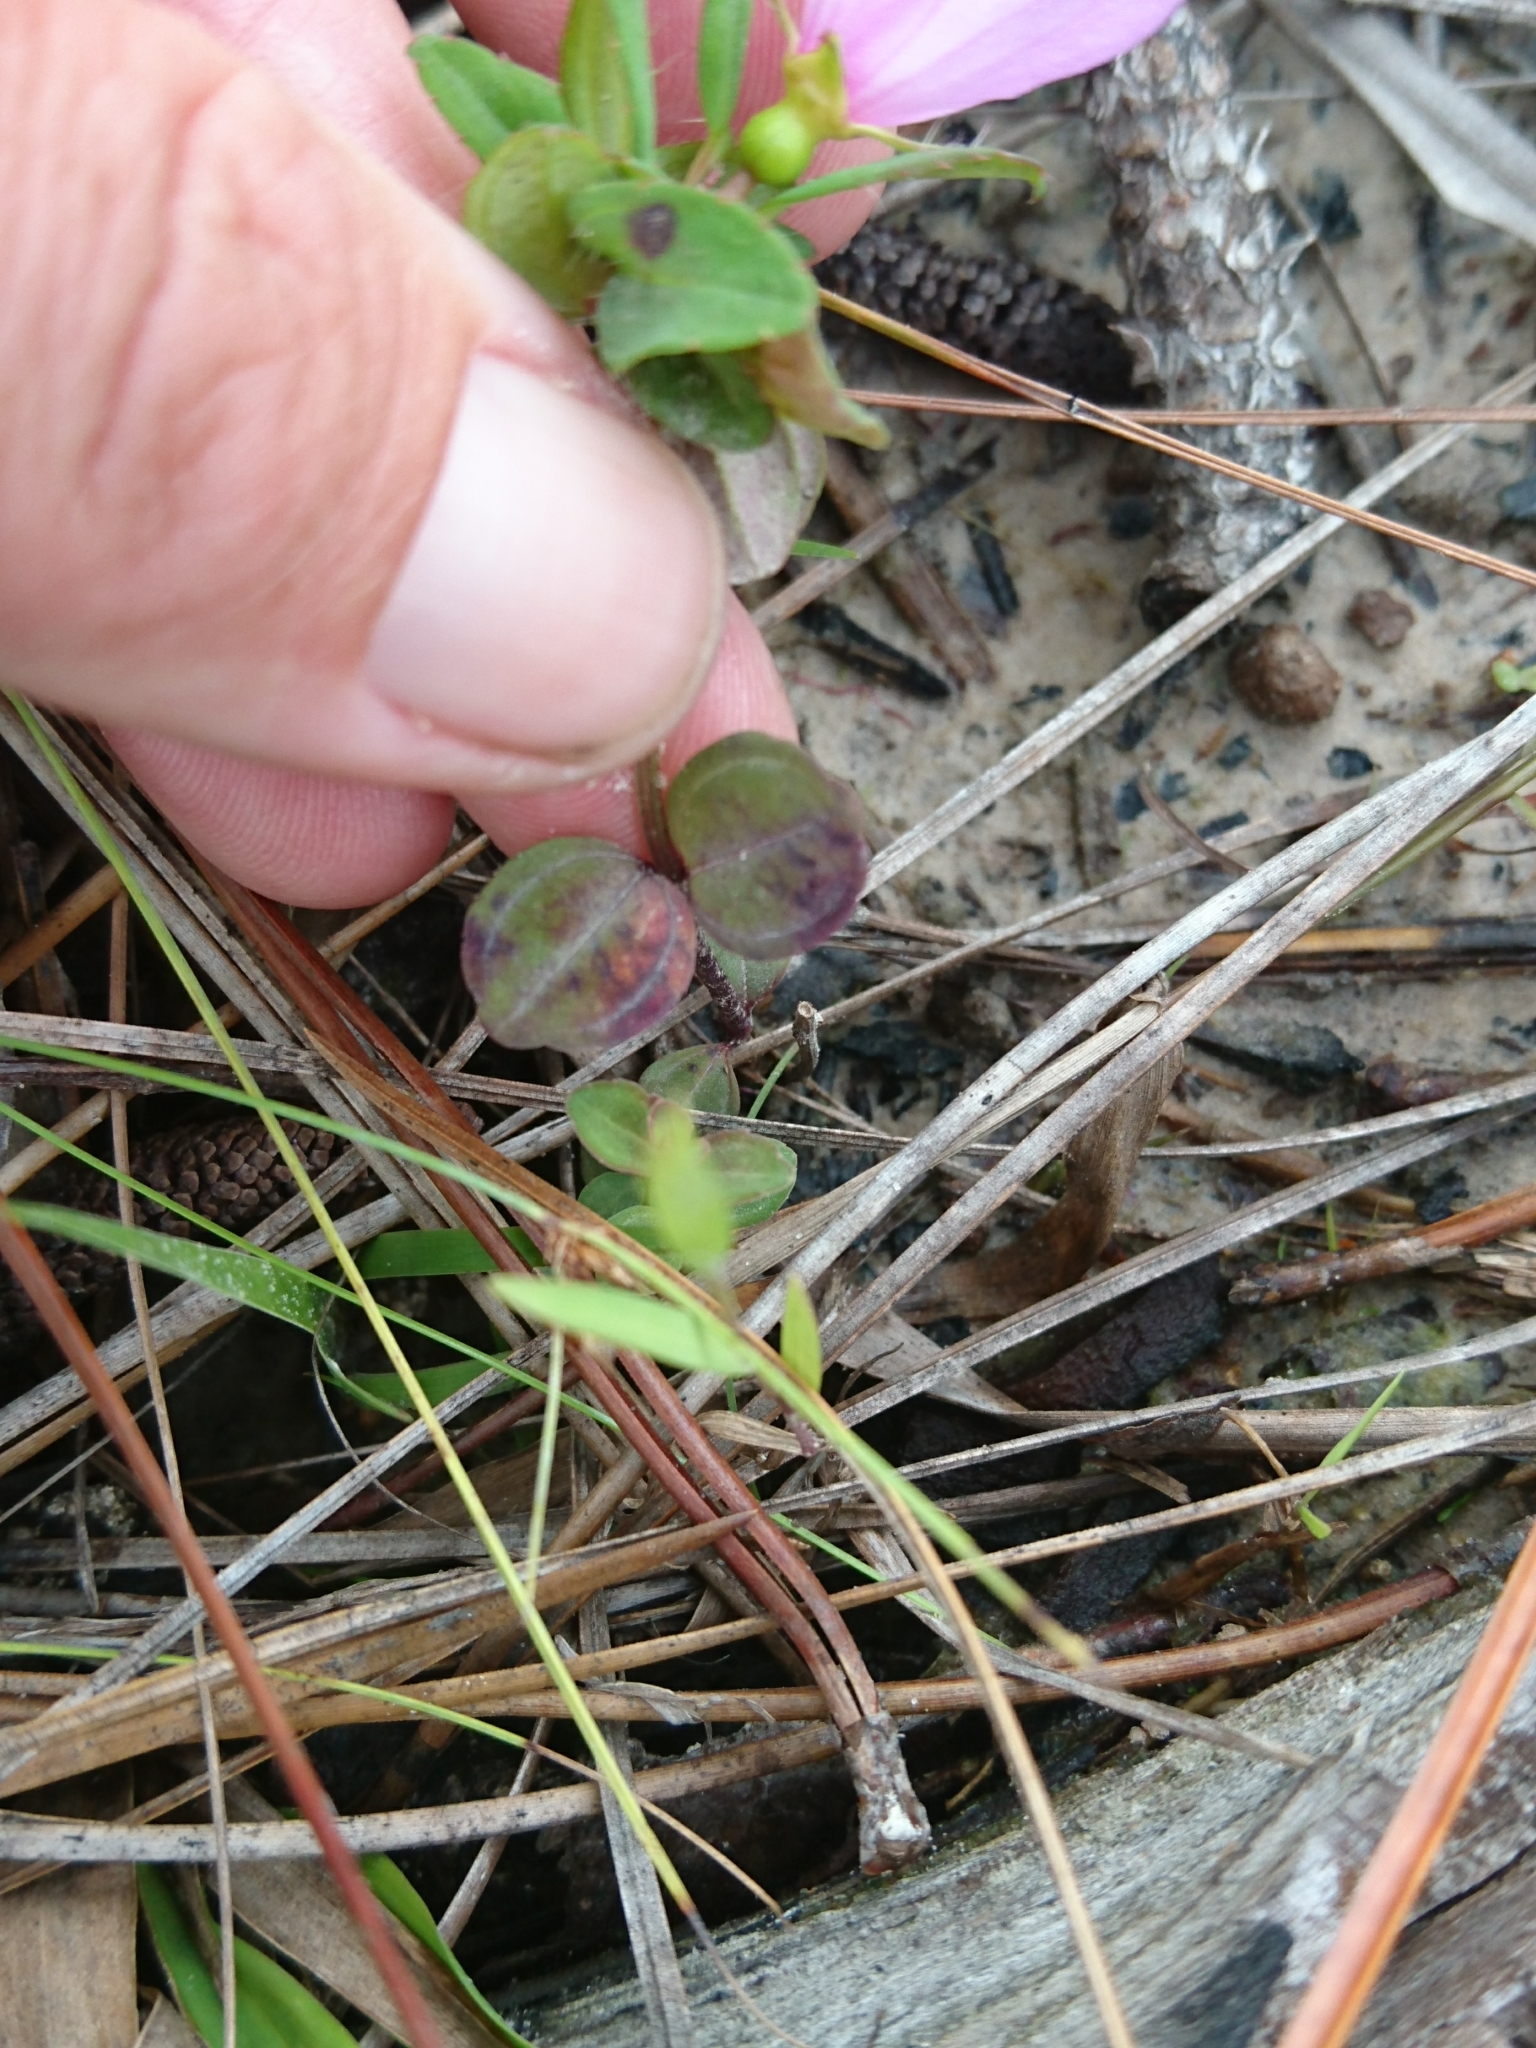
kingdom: Plantae
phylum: Tracheophyta
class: Magnoliopsida
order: Myrtales
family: Melastomataceae
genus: Rhexia
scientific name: Rhexia petiolata
